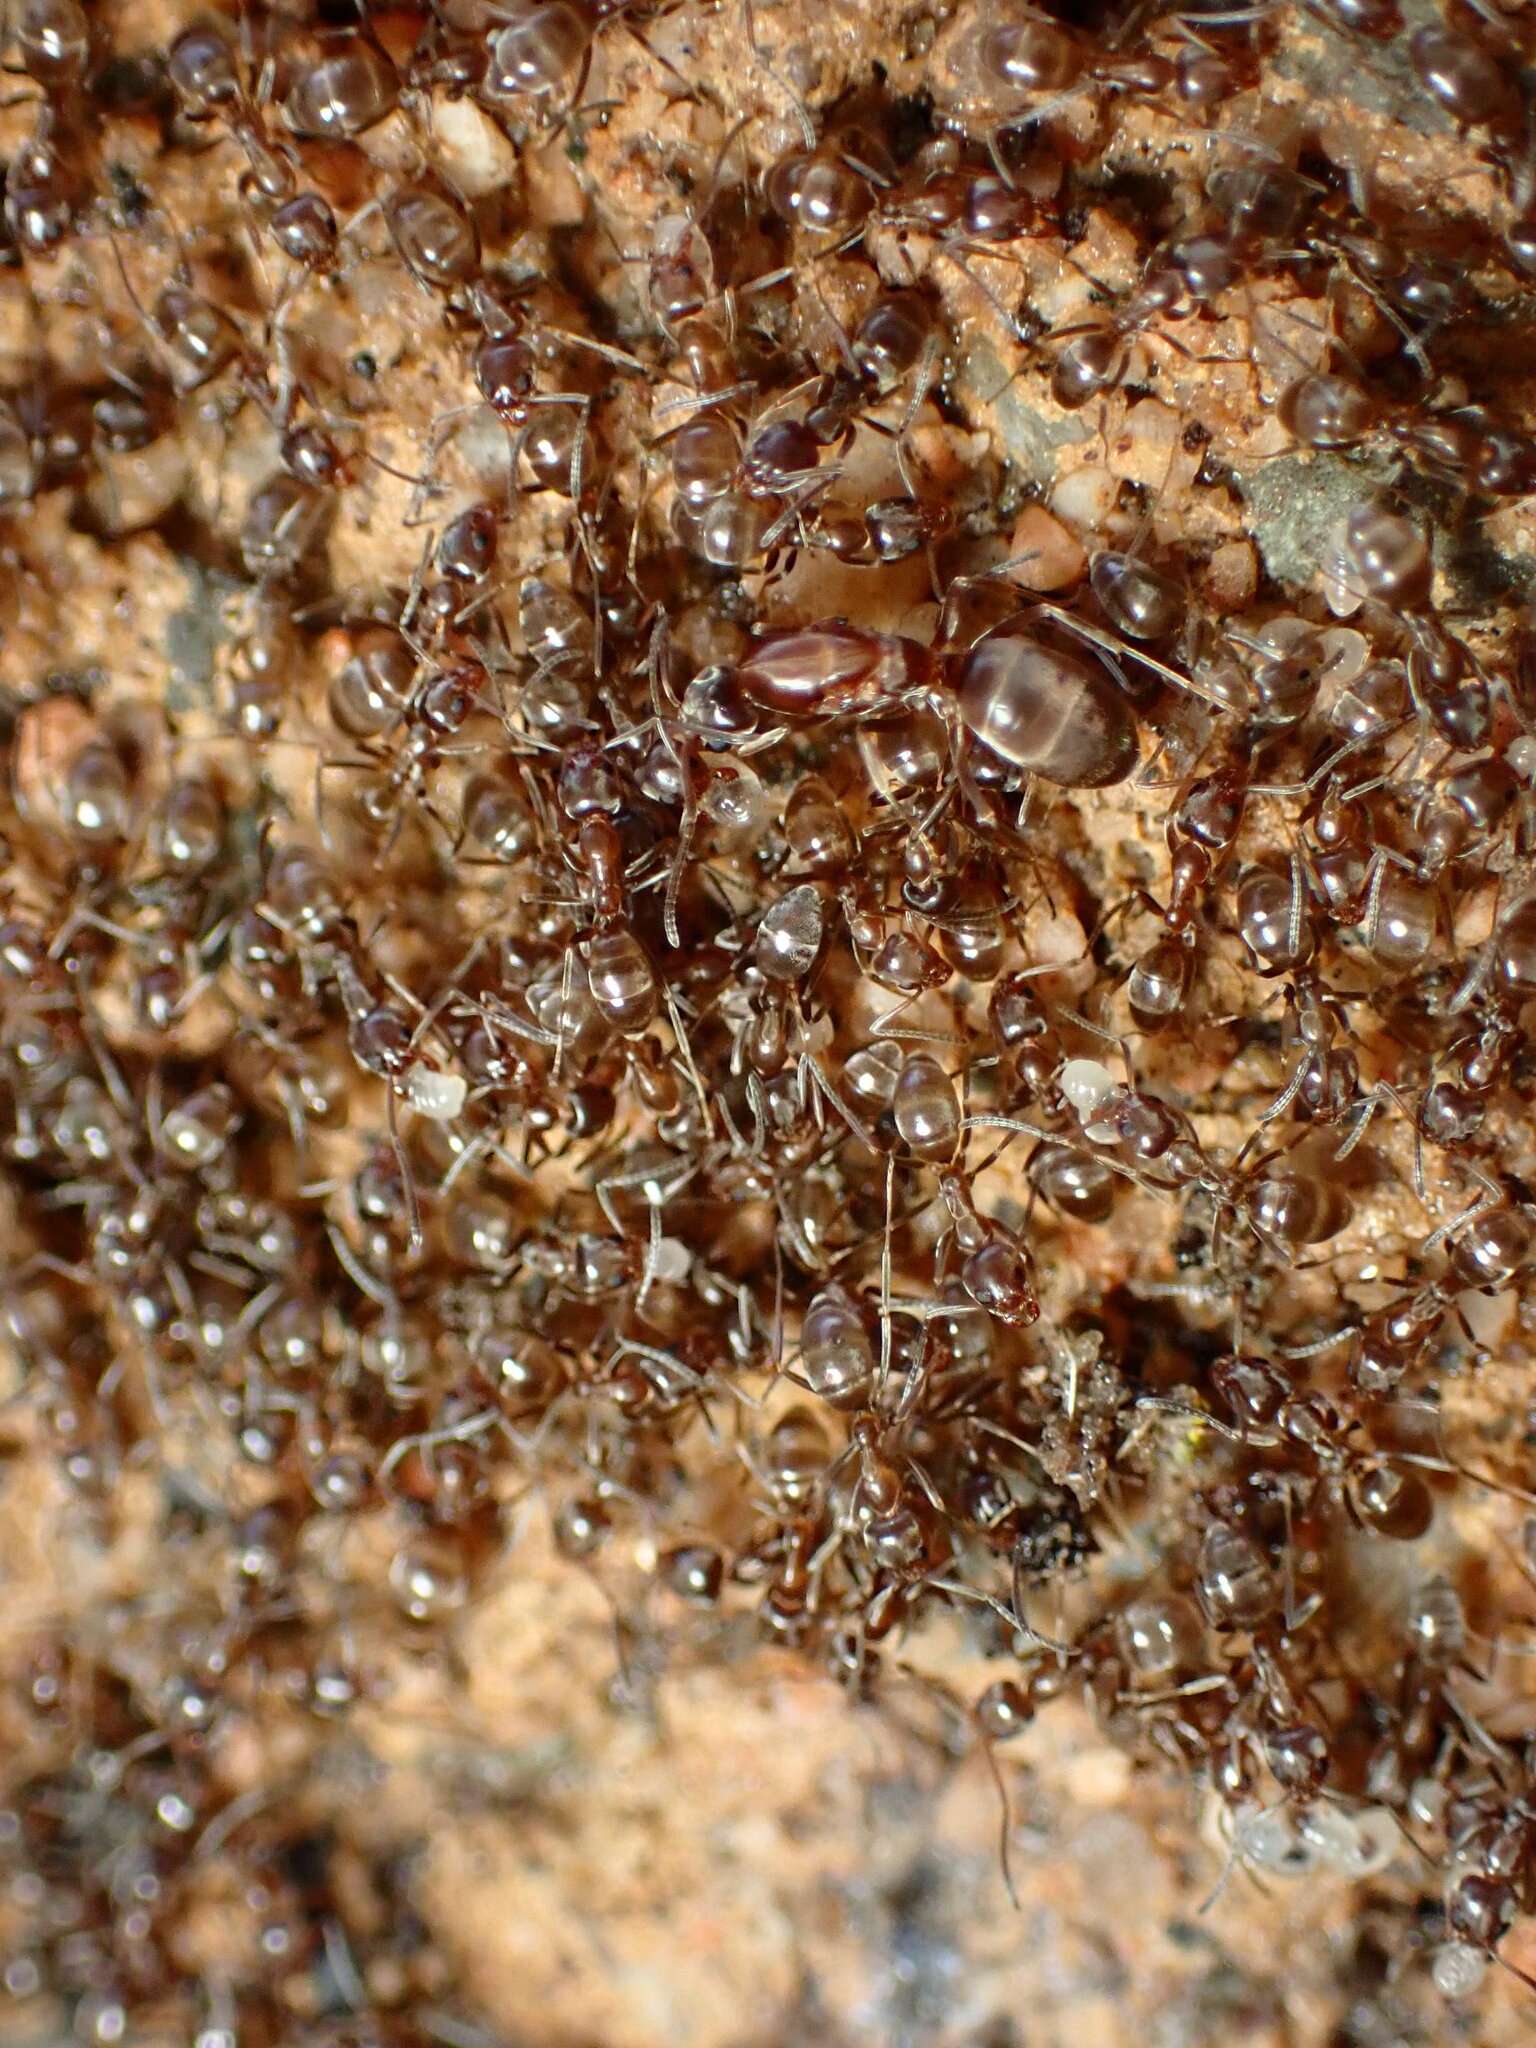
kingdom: Animalia
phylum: Arthropoda
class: Insecta
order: Hymenoptera
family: Formicidae
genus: Linepithema
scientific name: Linepithema humile
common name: Argentine ant
